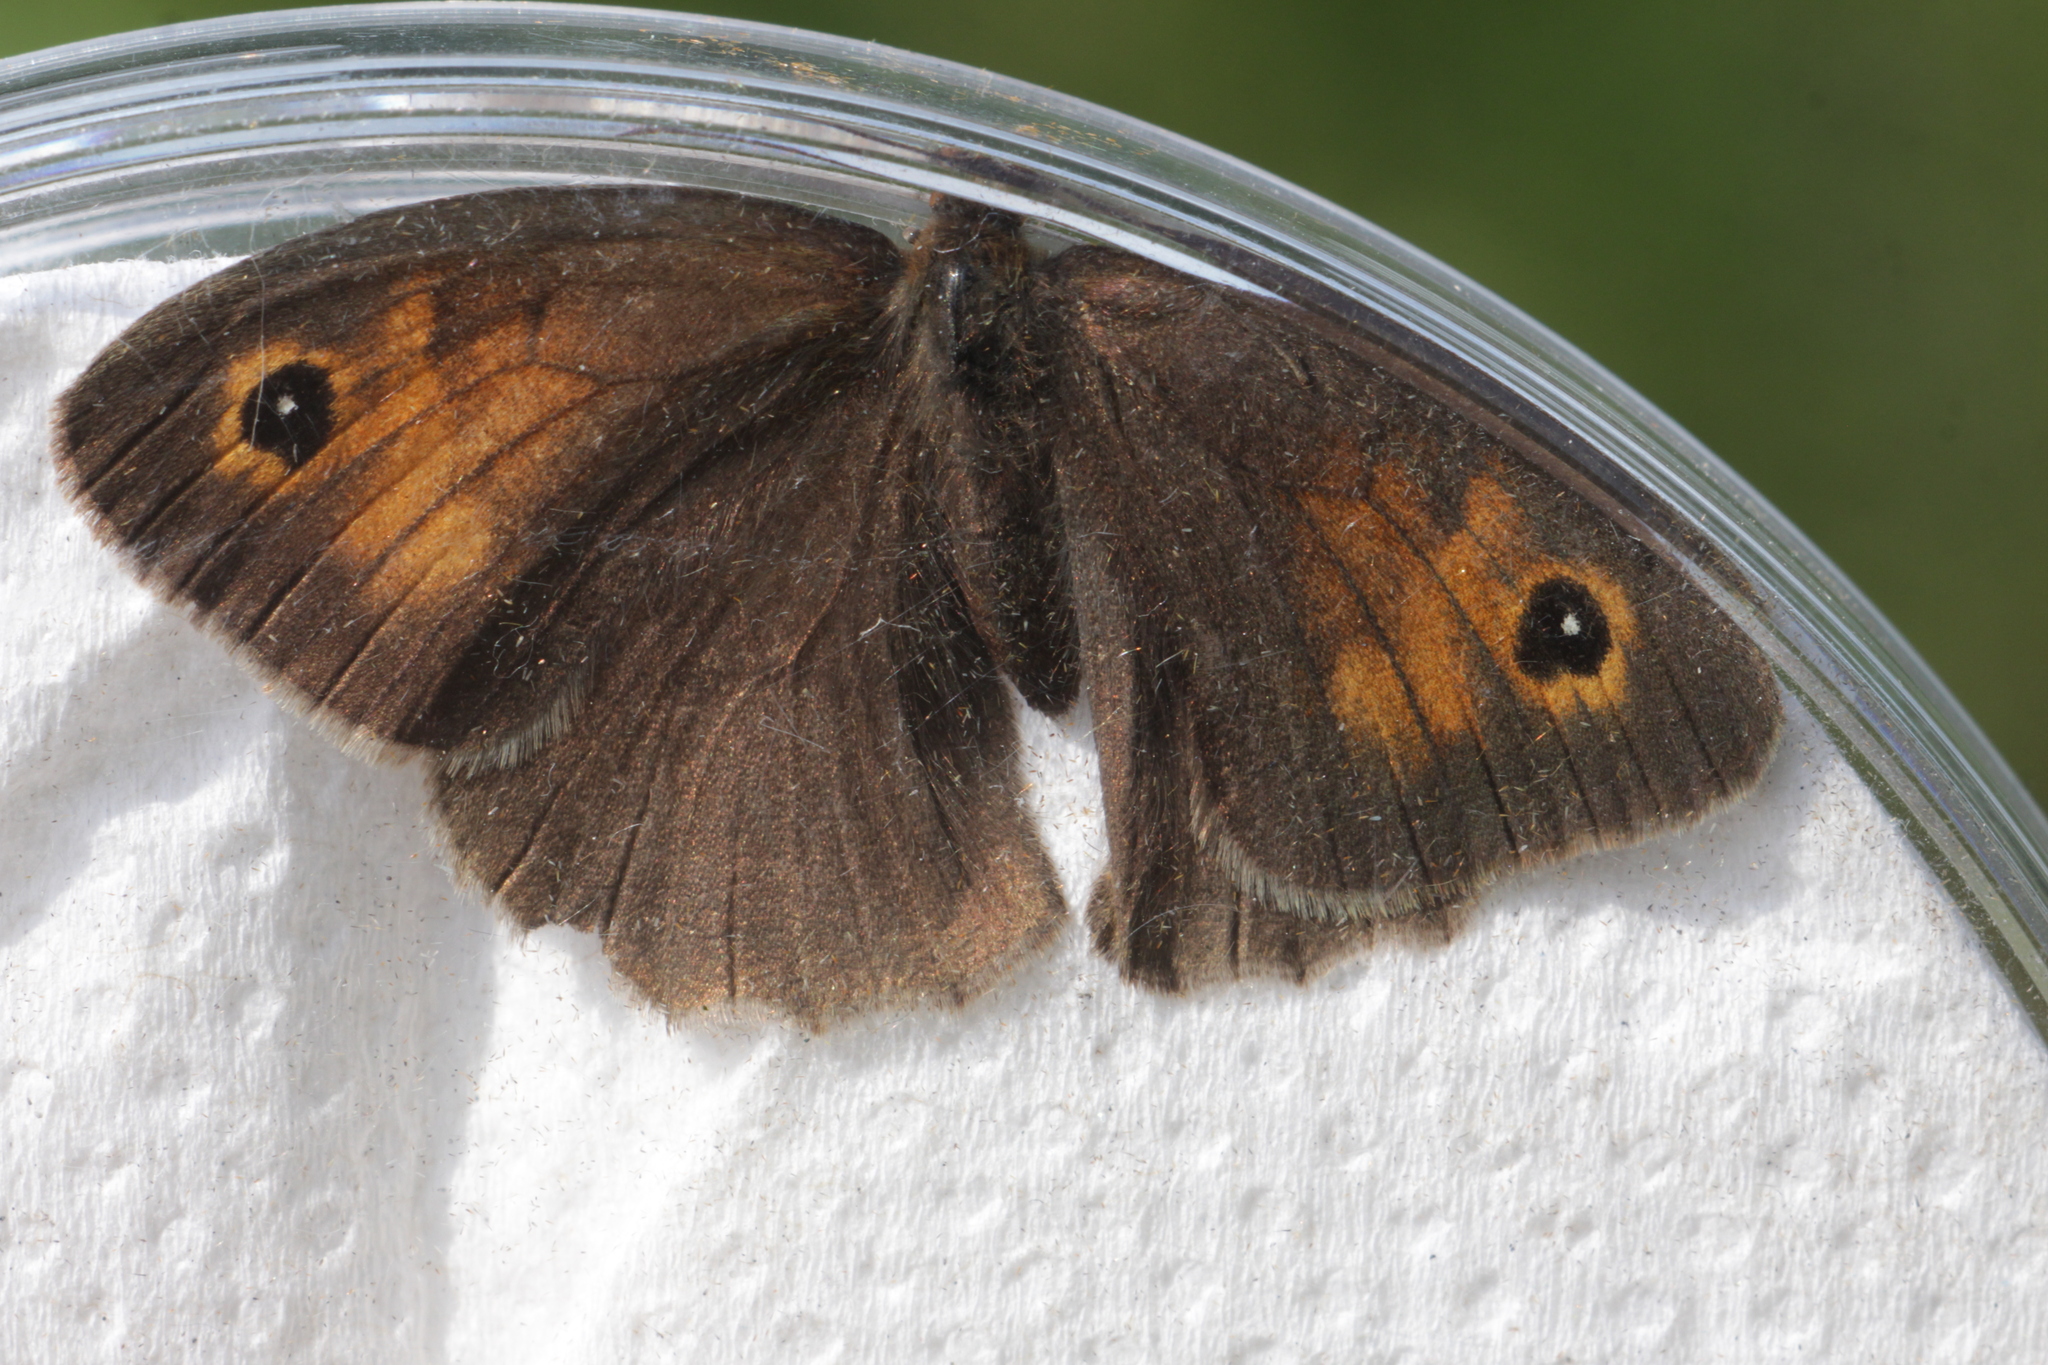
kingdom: Animalia
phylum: Arthropoda
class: Insecta
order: Lepidoptera
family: Nymphalidae
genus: Maniola
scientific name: Maniola jurtina
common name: Meadow brown
